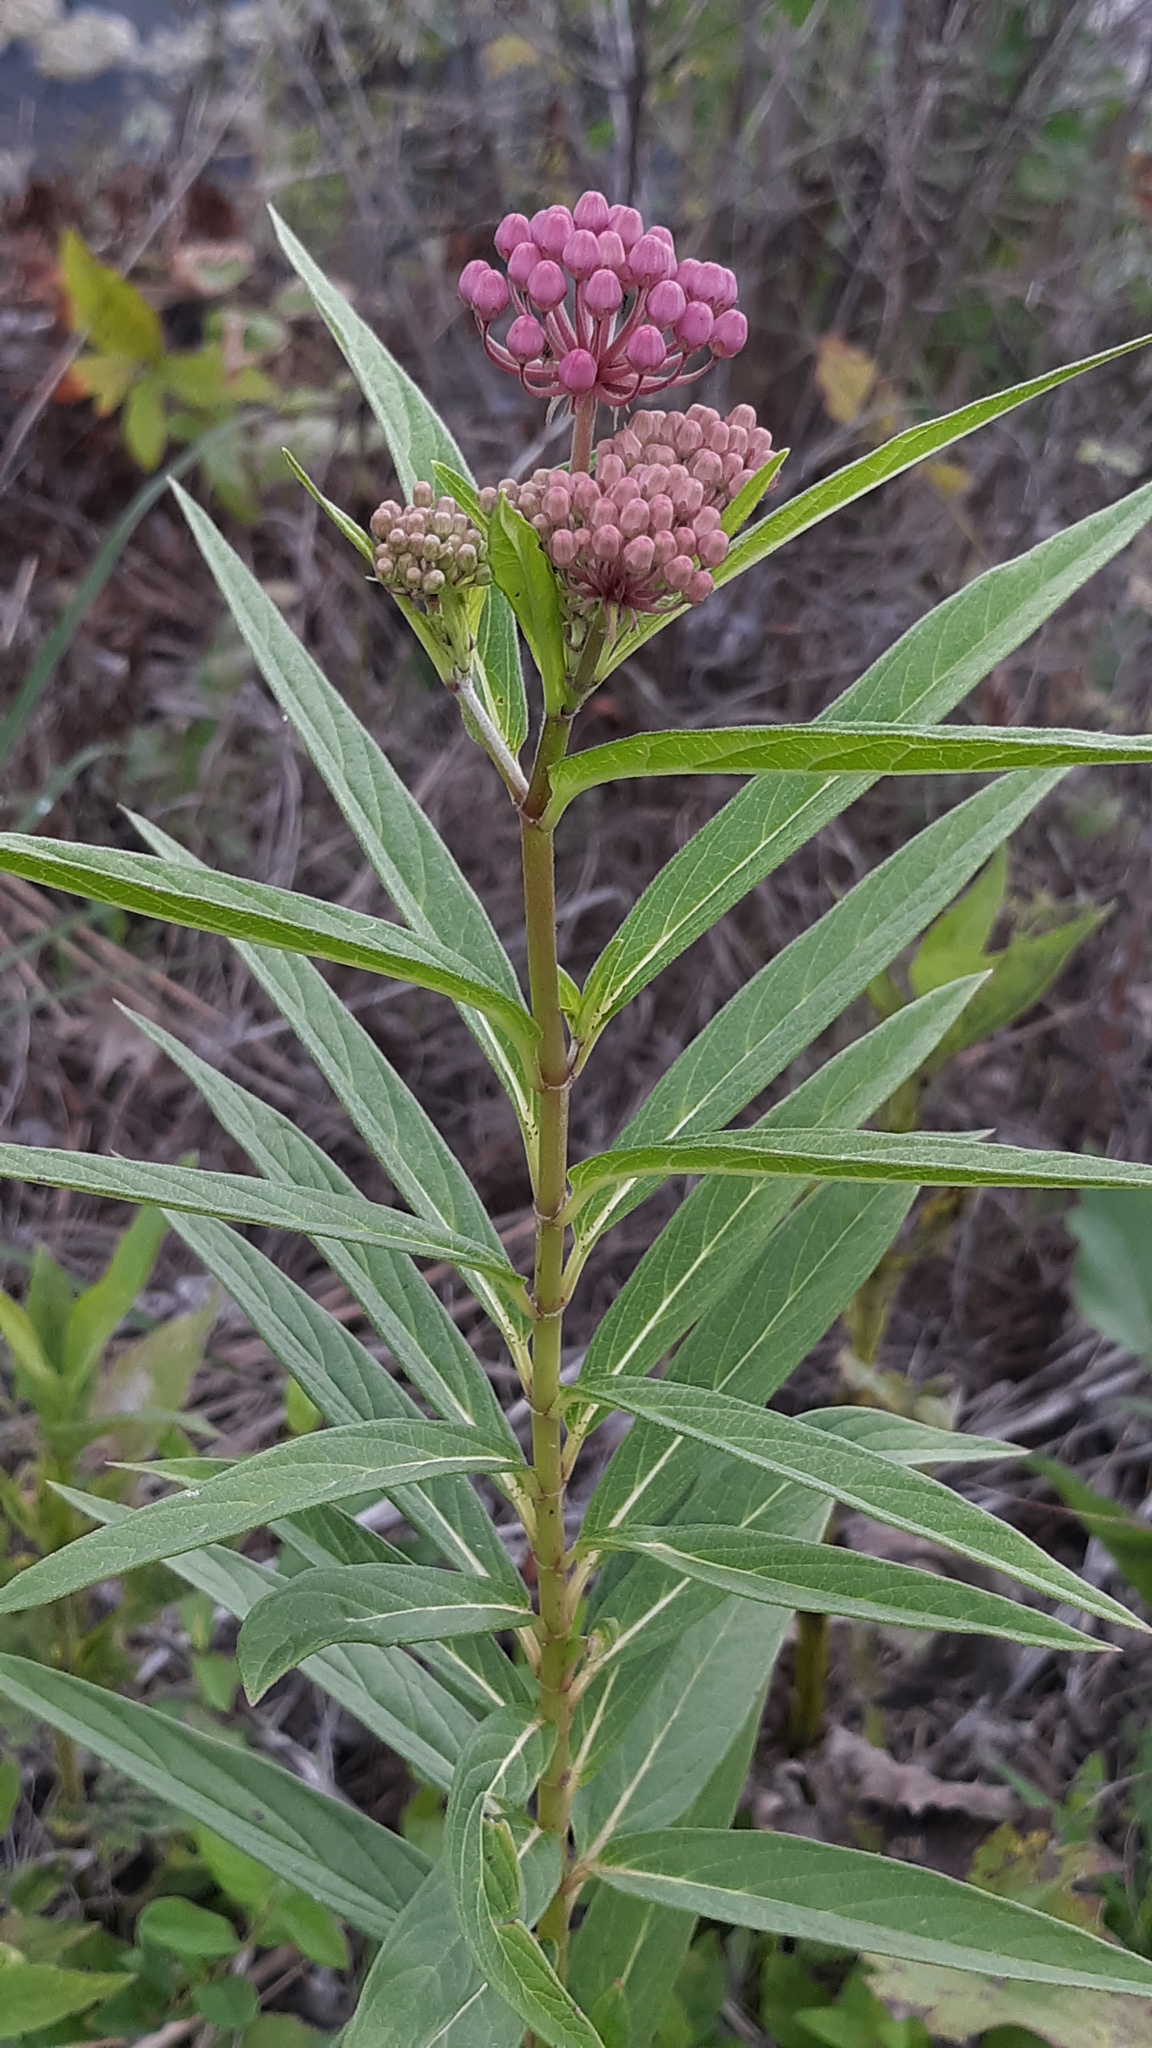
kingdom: Plantae
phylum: Tracheophyta
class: Magnoliopsida
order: Gentianales
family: Apocynaceae
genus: Asclepias
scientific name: Asclepias incarnata
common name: Swamp milkweed
